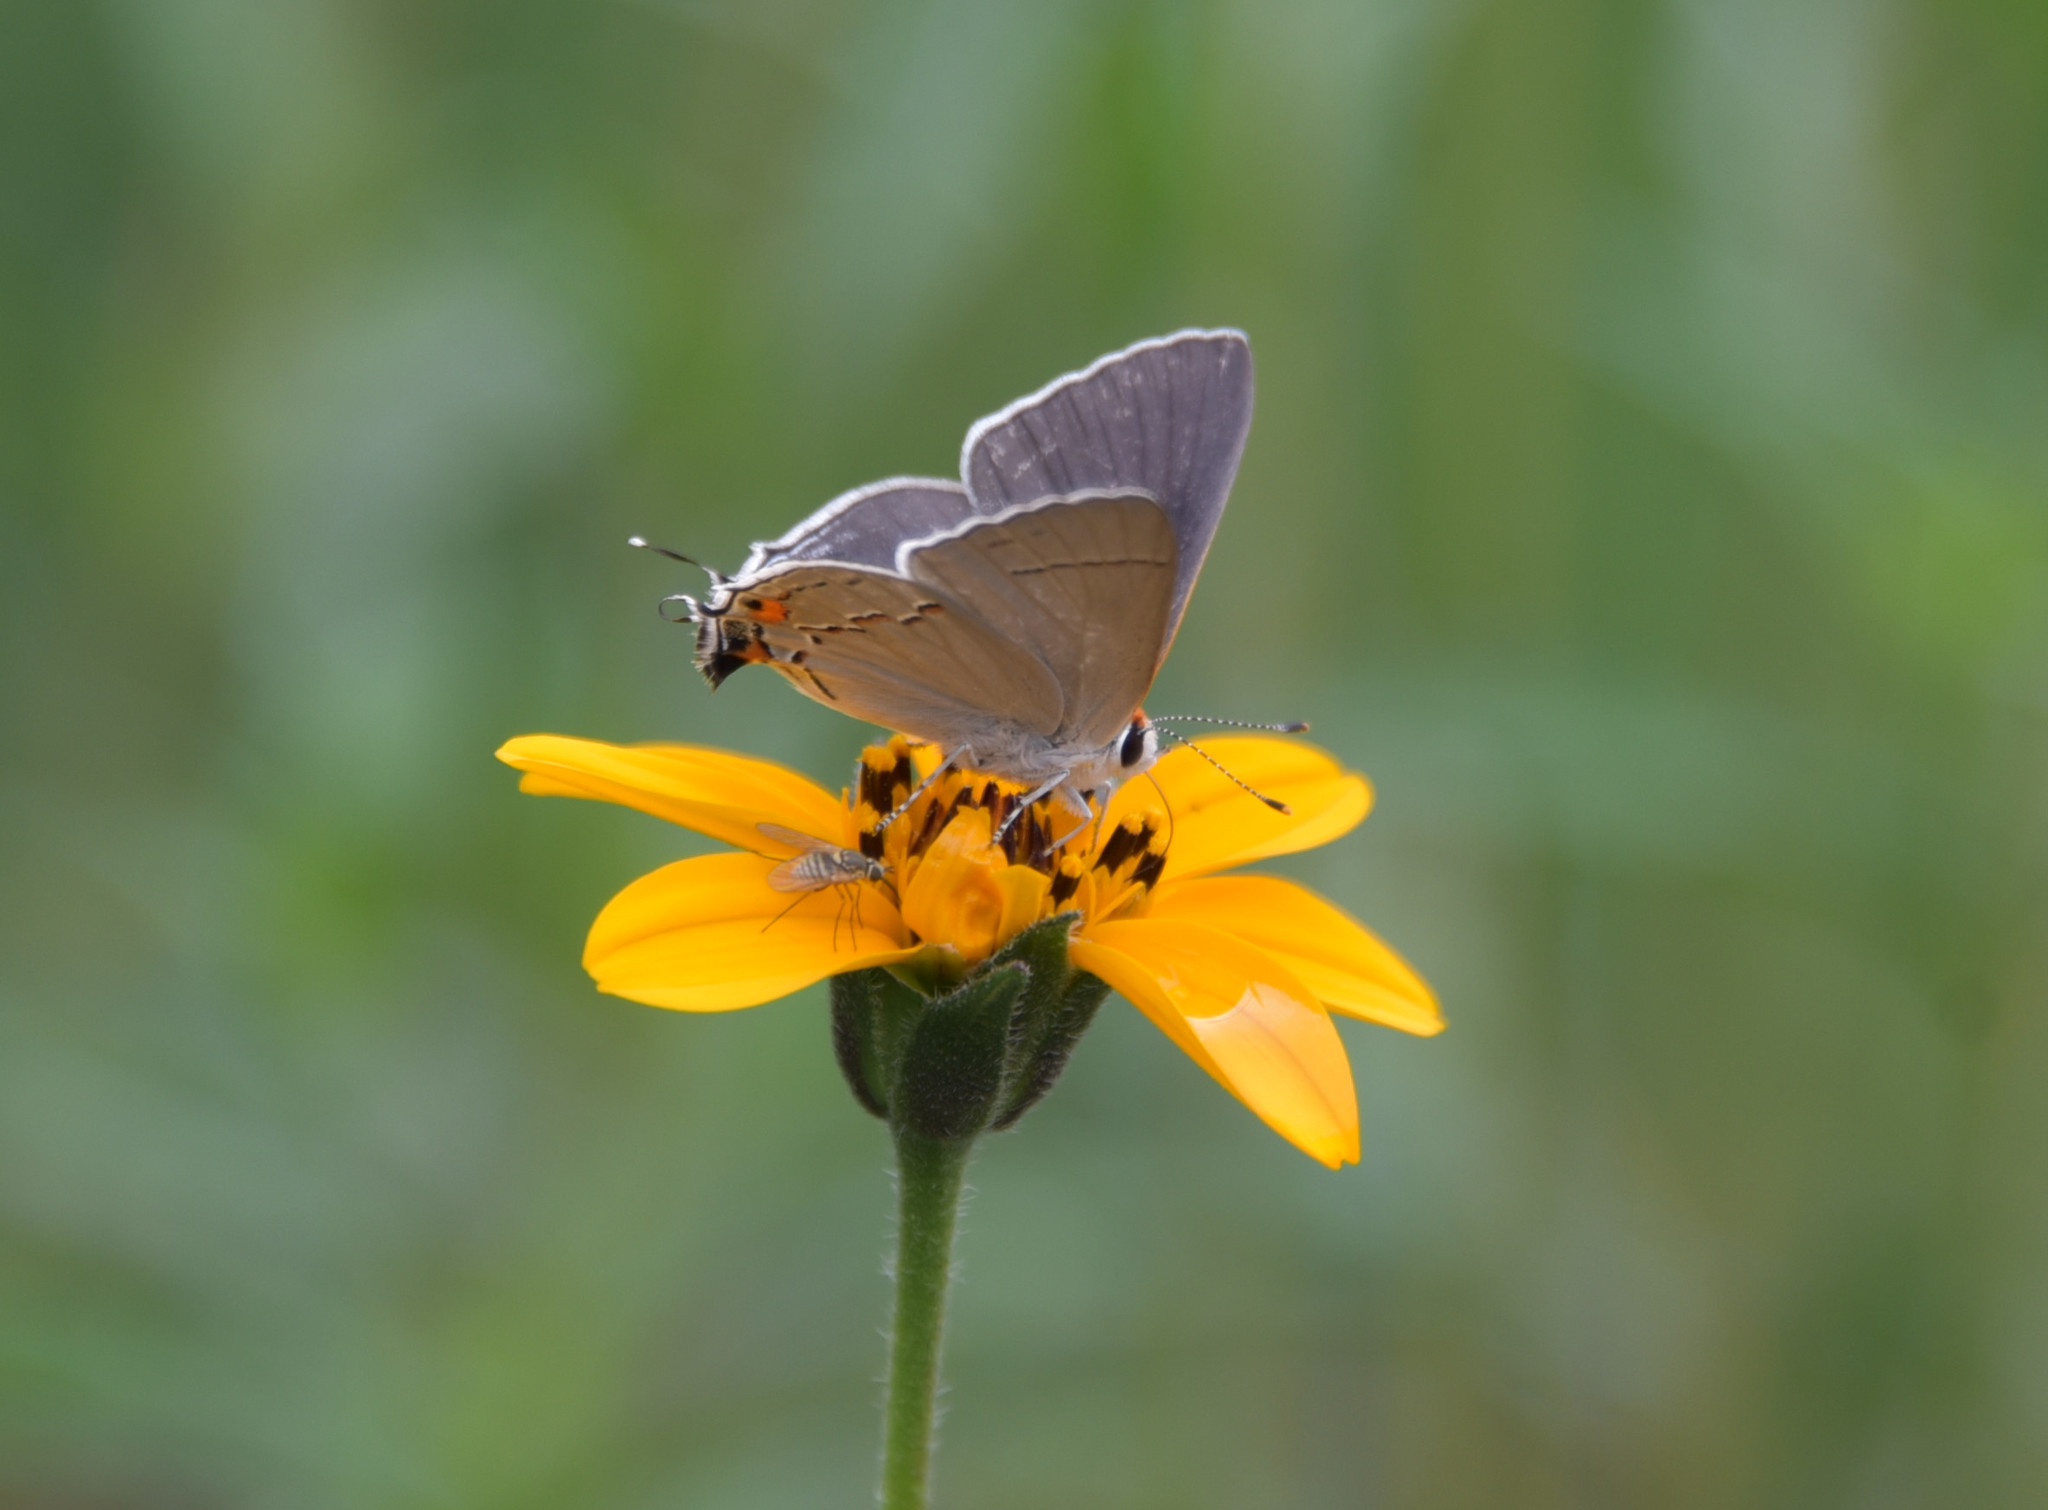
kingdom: Animalia
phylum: Arthropoda
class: Insecta
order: Lepidoptera
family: Lycaenidae
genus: Strymon
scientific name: Strymon melinus
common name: Gray hairstreak
